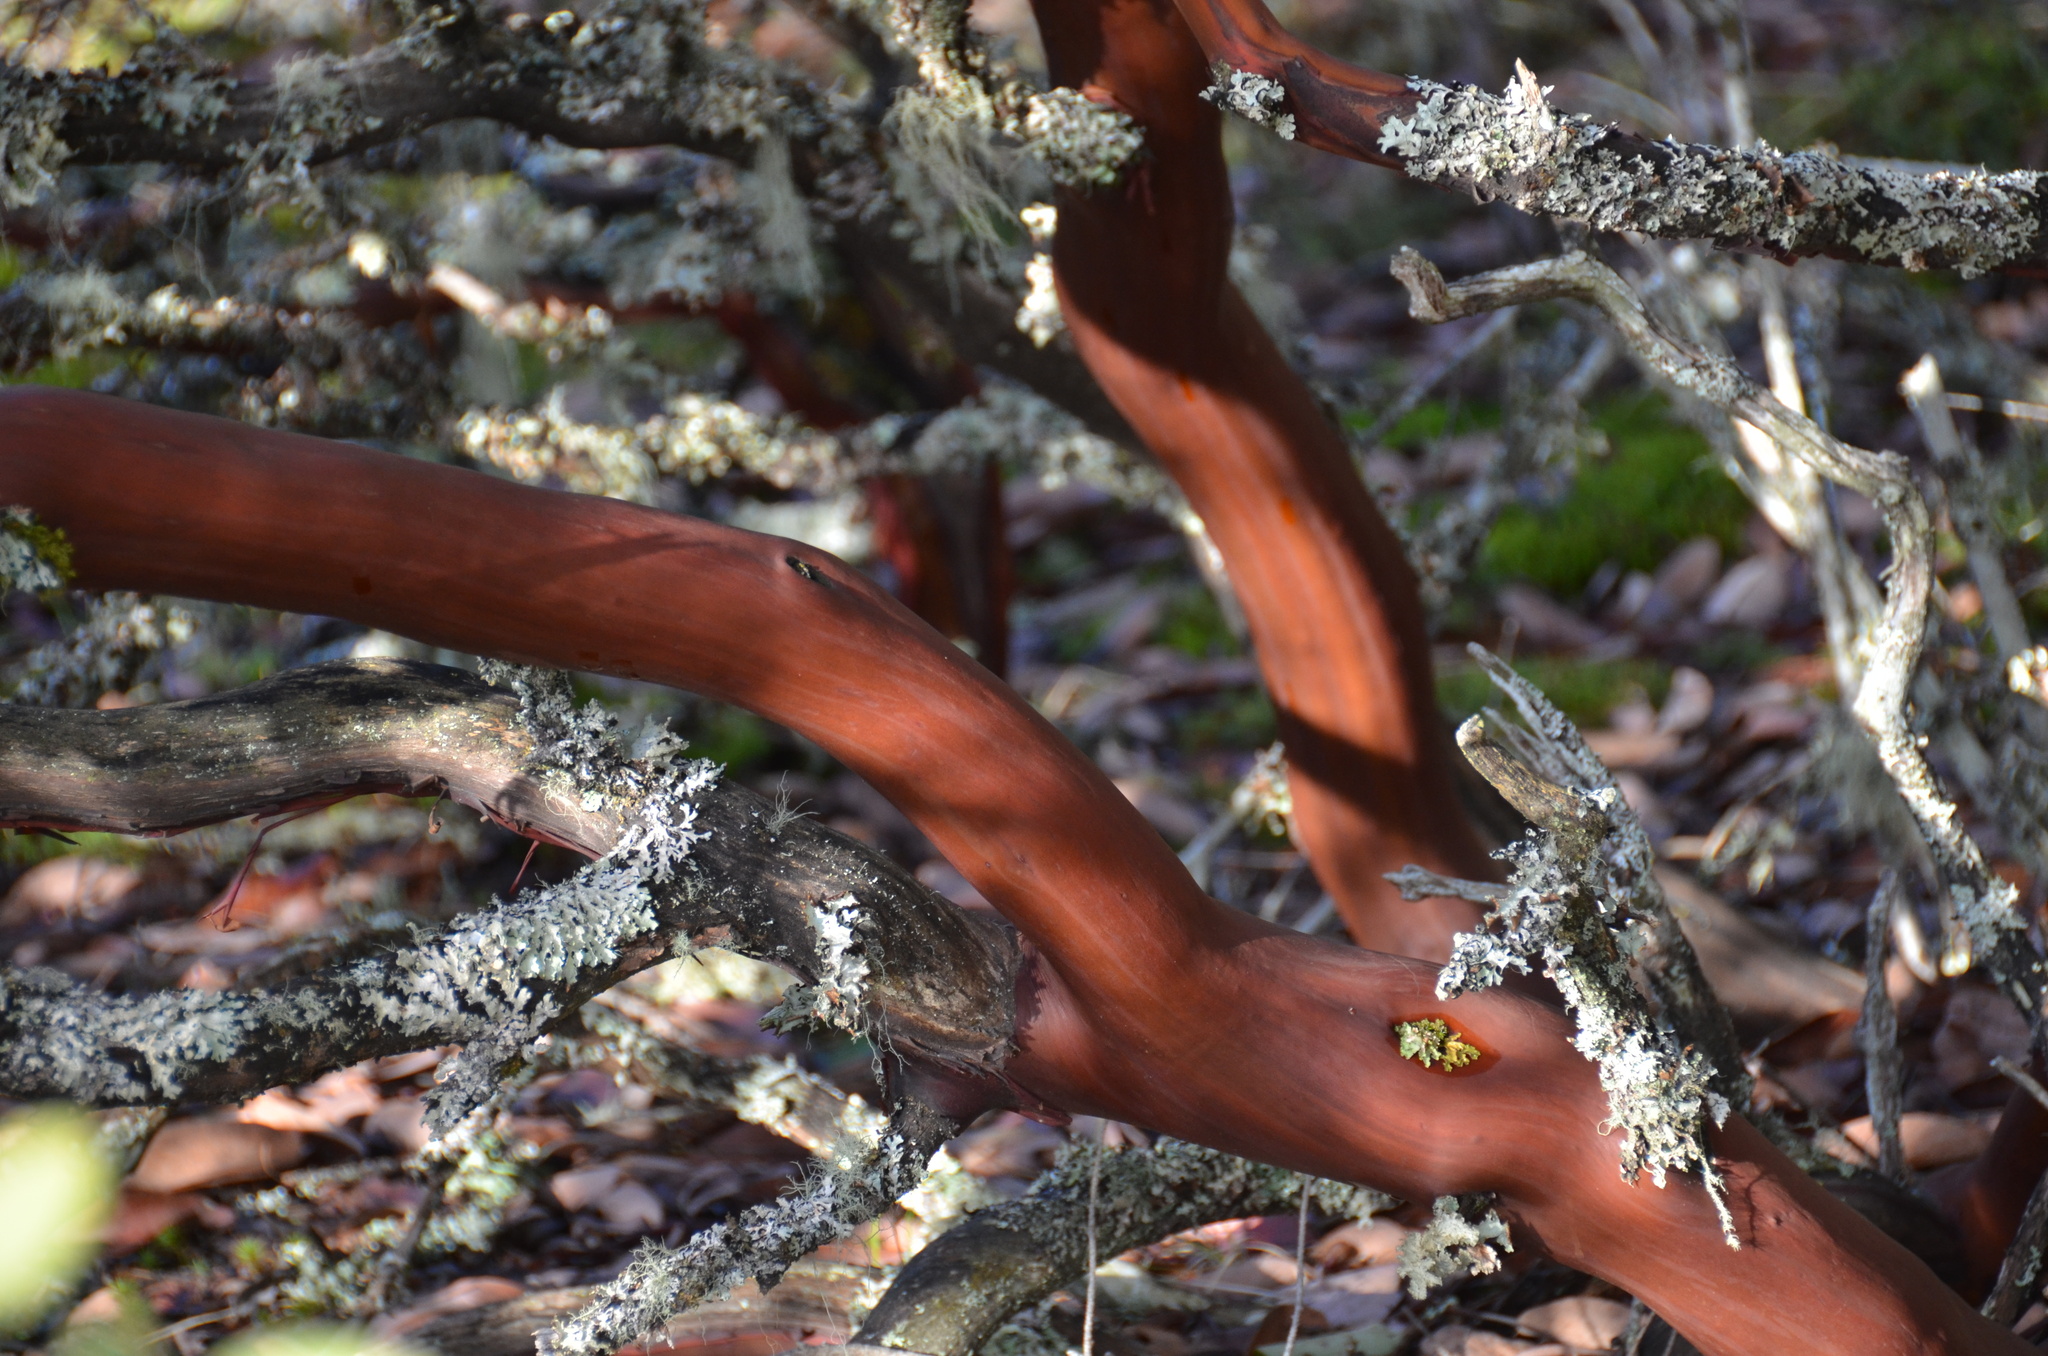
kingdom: Plantae
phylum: Tracheophyta
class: Magnoliopsida
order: Ericales
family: Ericaceae
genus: Arctostaphylos
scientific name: Arctostaphylos columbiana
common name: Bristly bearberry
